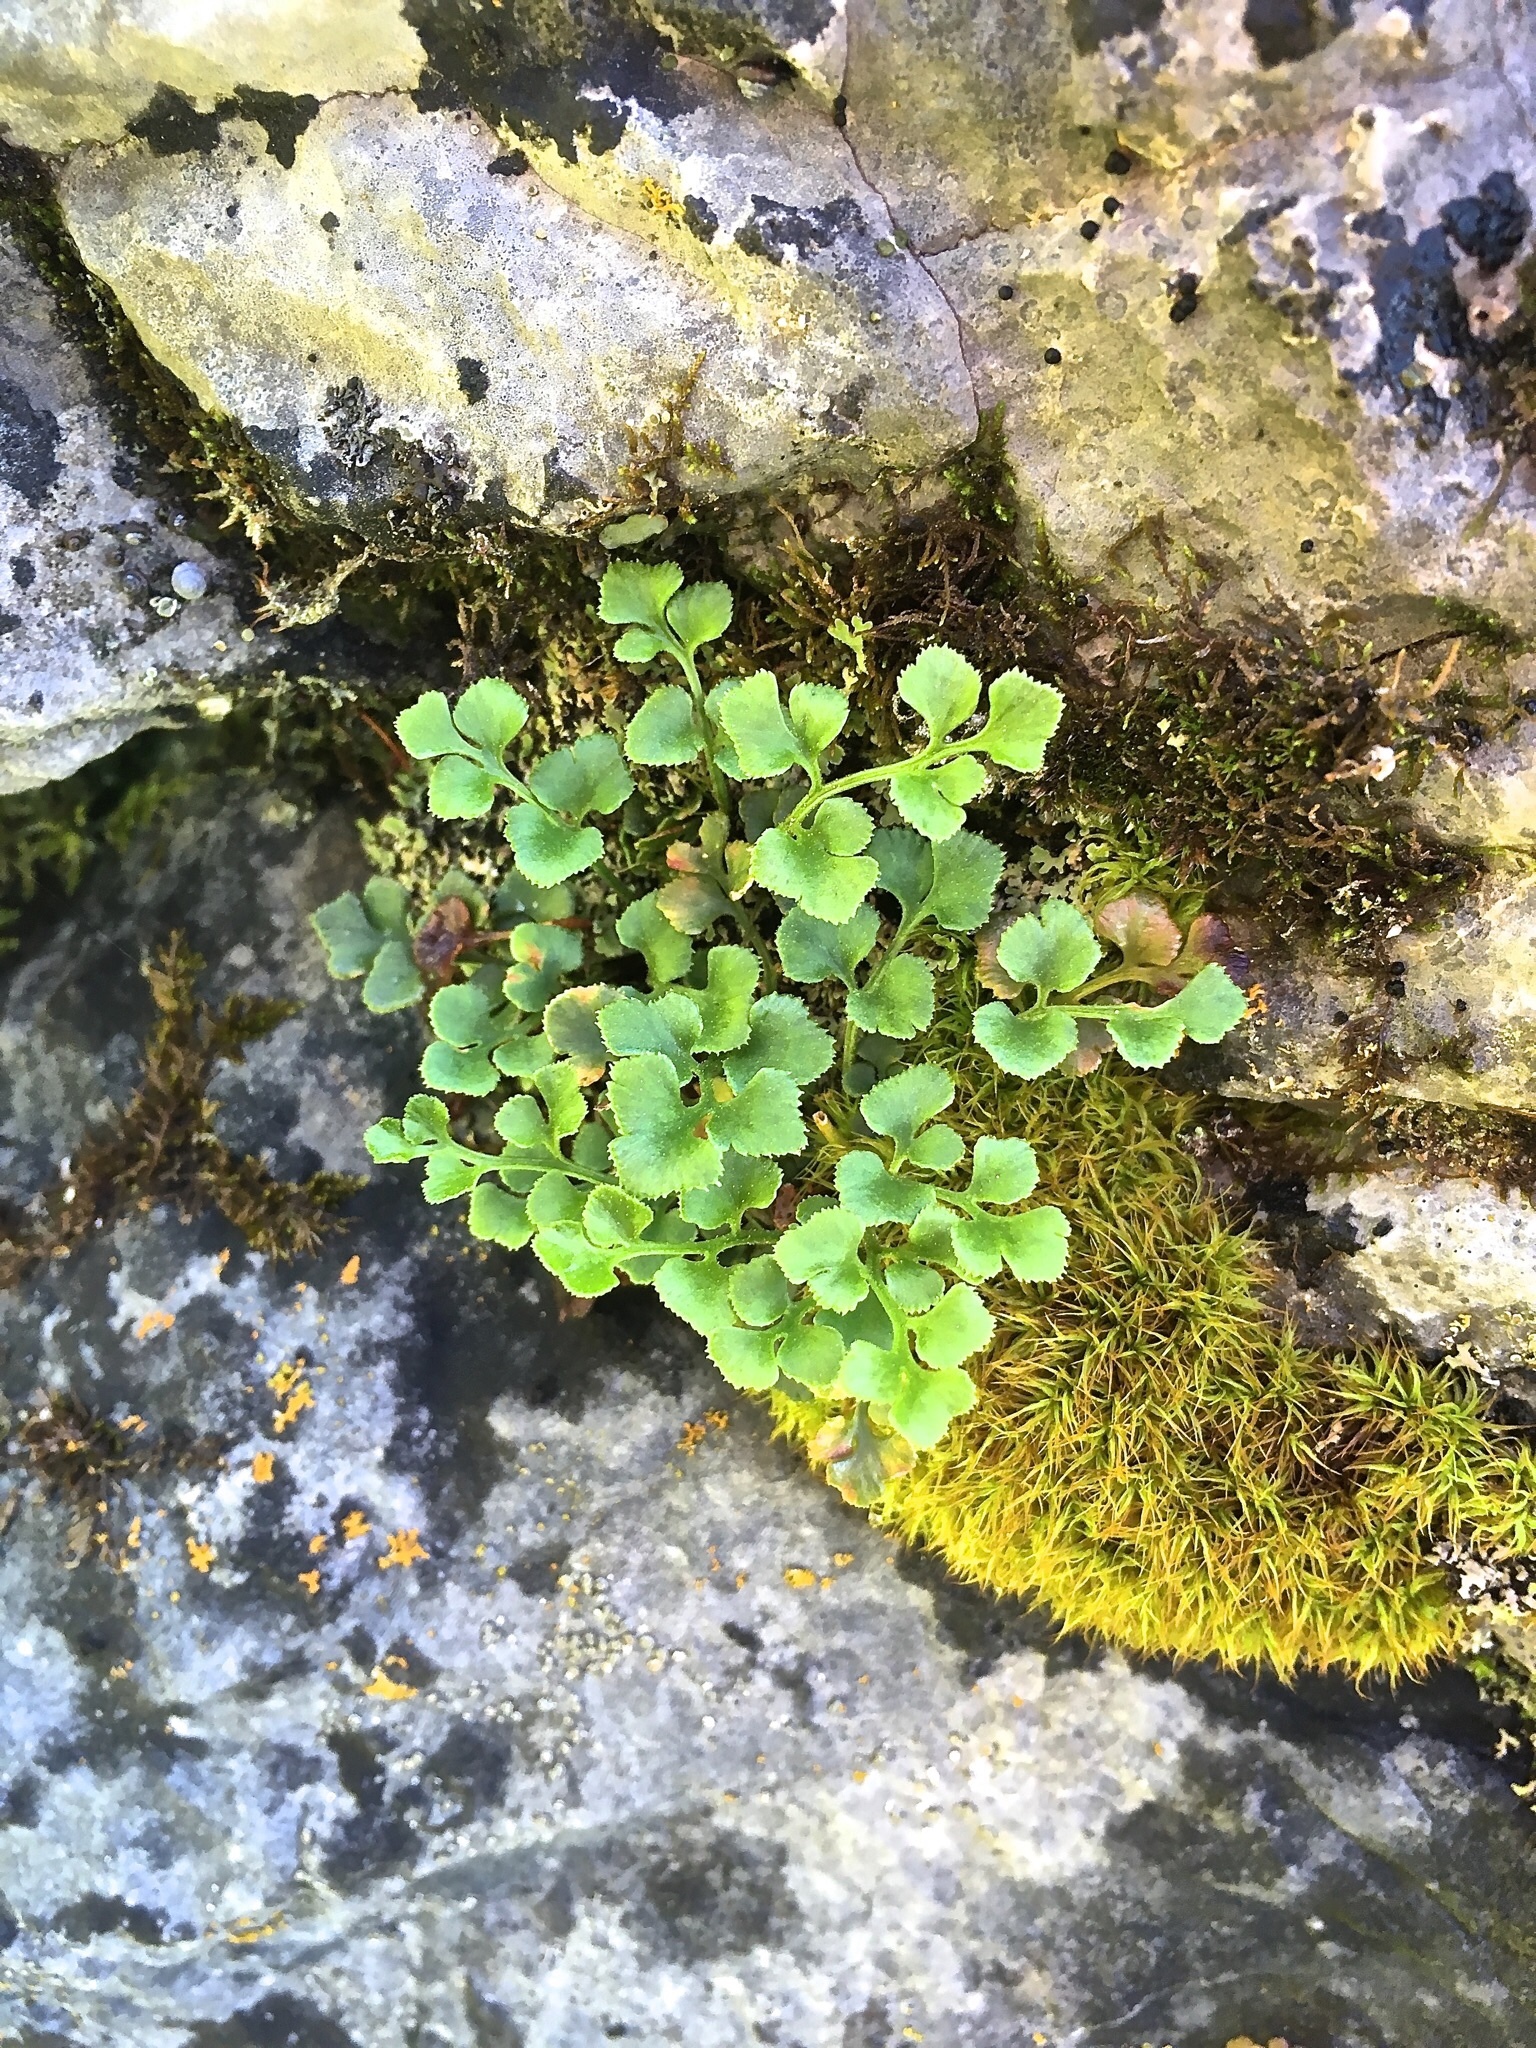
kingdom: Plantae
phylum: Tracheophyta
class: Polypodiopsida
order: Polypodiales
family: Aspleniaceae
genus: Asplenium
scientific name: Asplenium ruta-muraria
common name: Wall-rue
